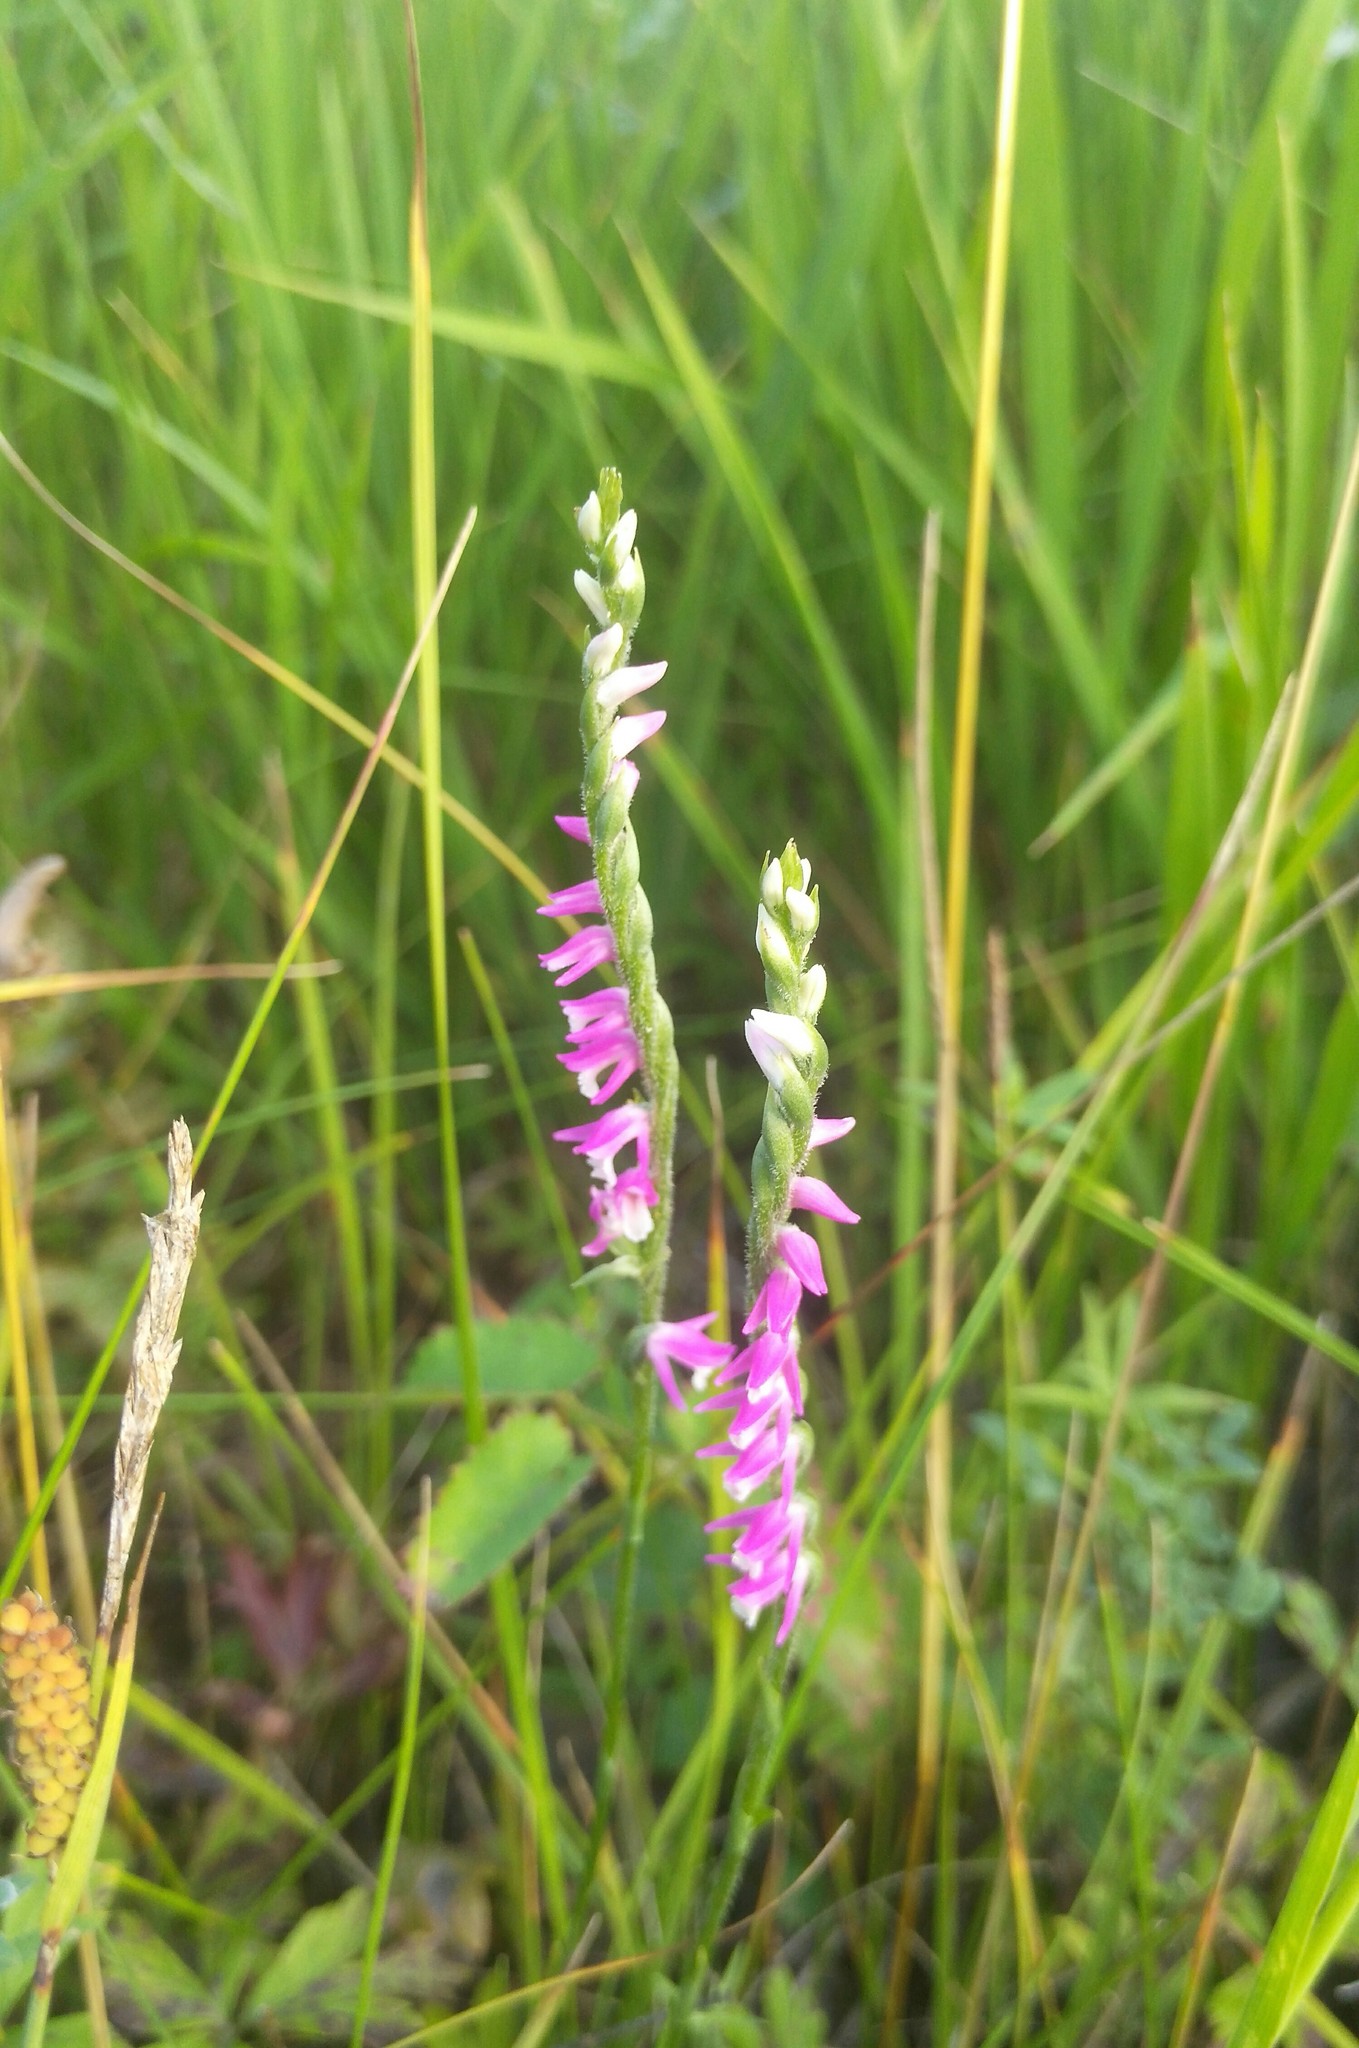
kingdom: Plantae
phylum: Tracheophyta
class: Liliopsida
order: Asparagales
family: Orchidaceae
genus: Spiranthes
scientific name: Spiranthes australis
